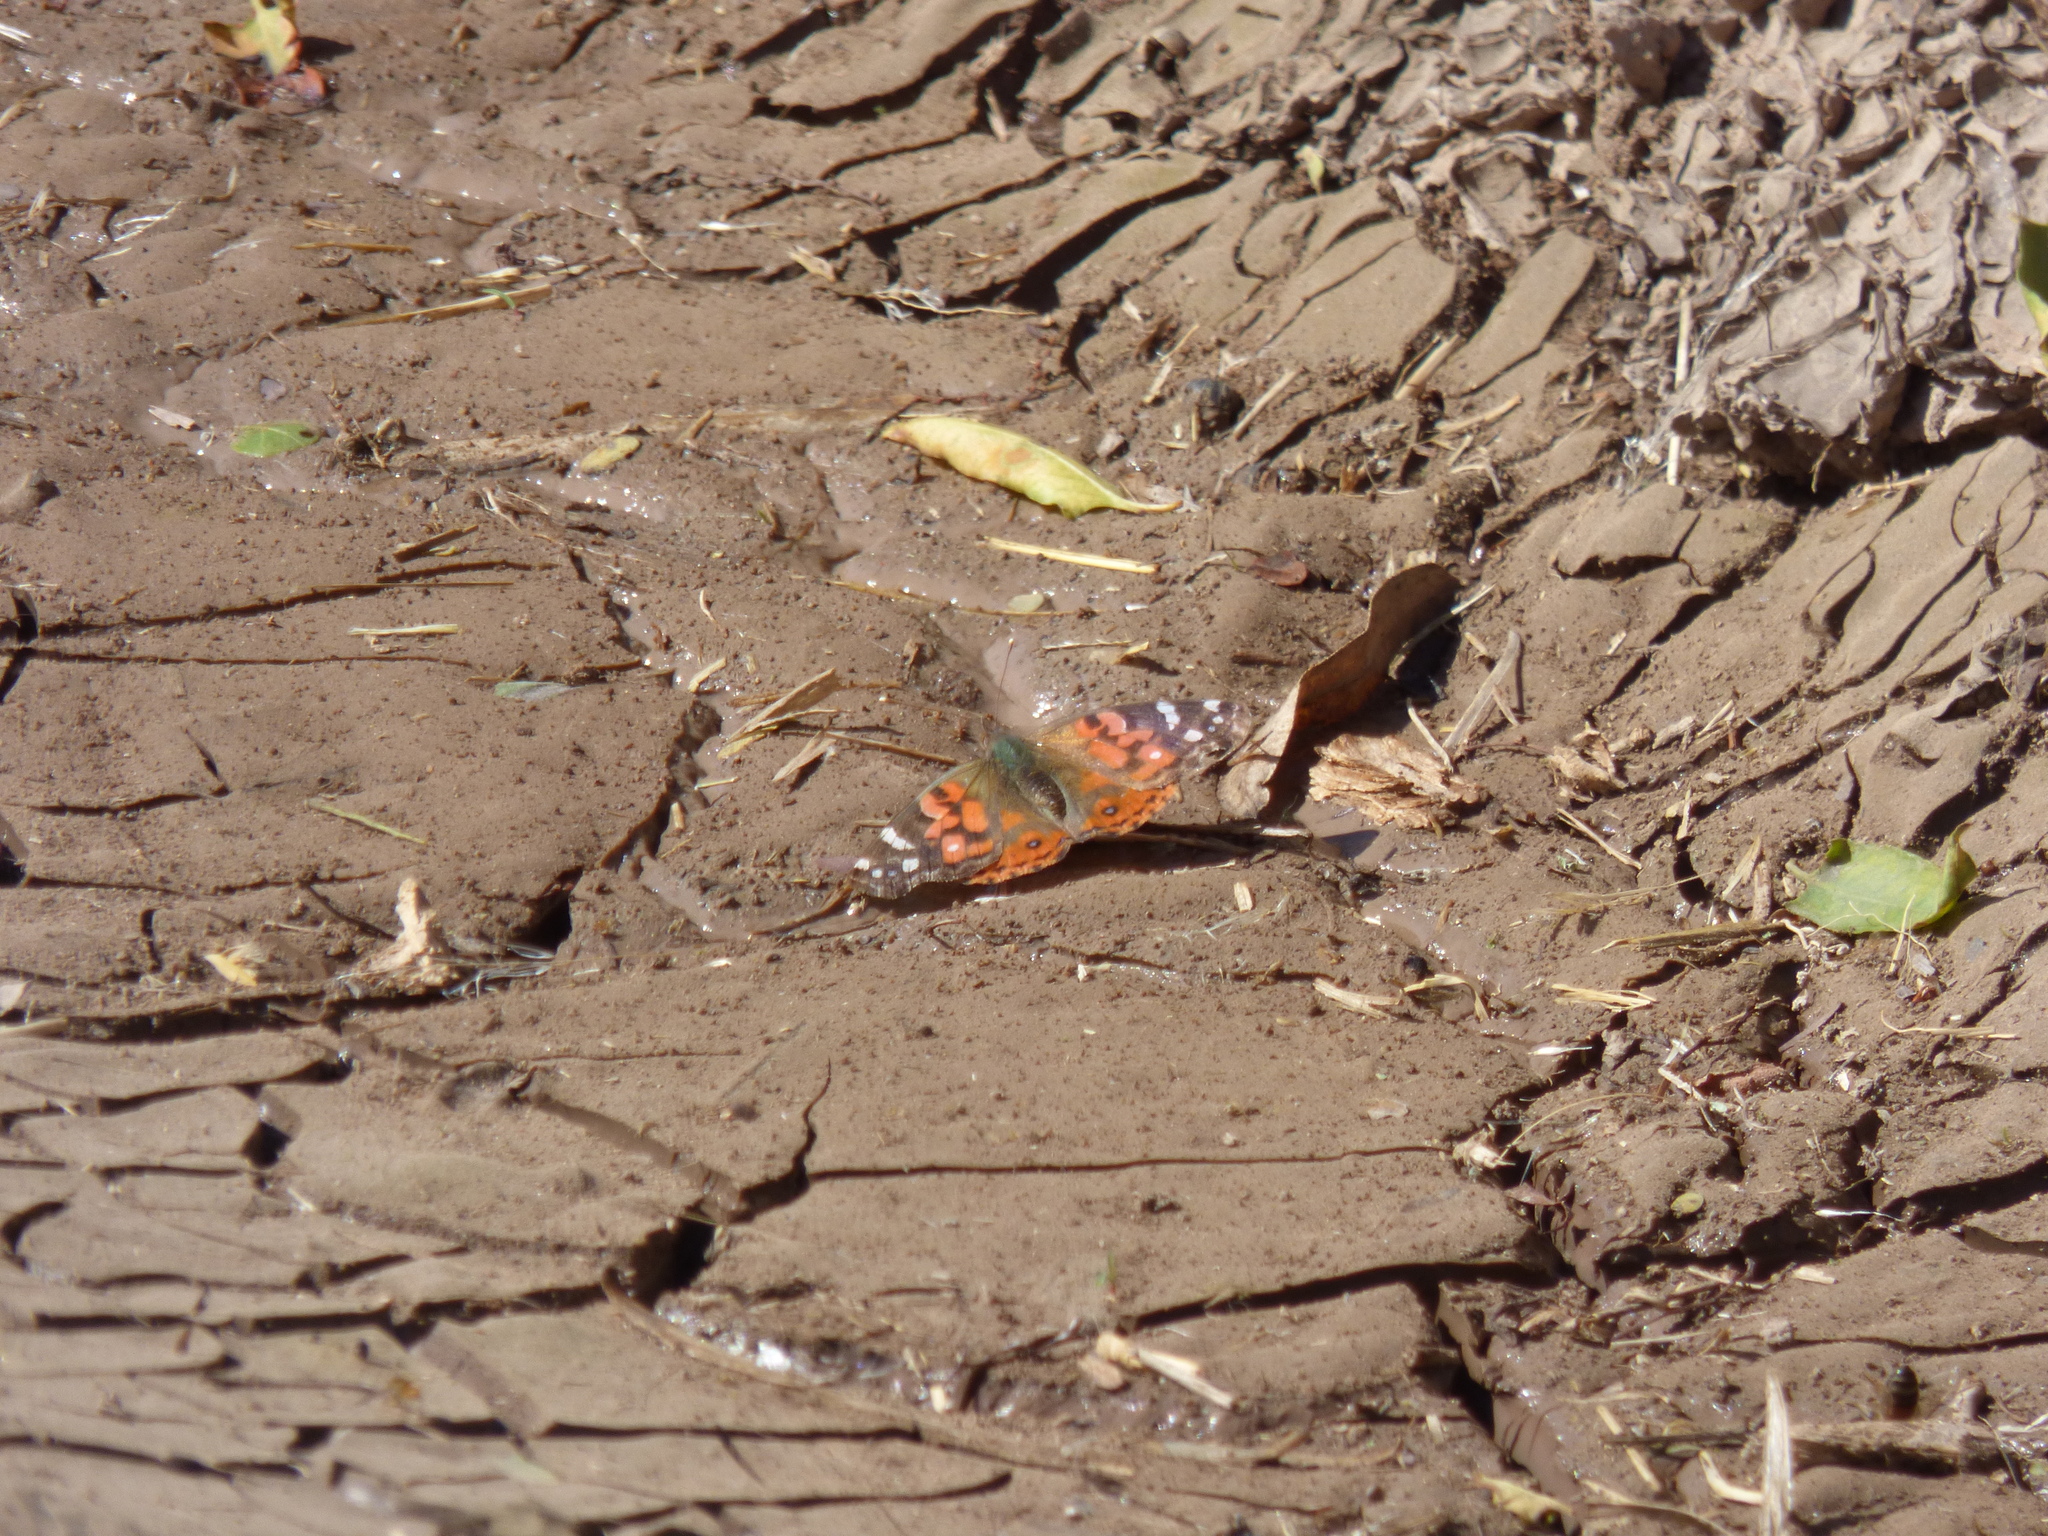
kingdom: Animalia
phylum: Arthropoda
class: Insecta
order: Lepidoptera
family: Nymphalidae
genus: Vanessa
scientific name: Vanessa braziliensis
